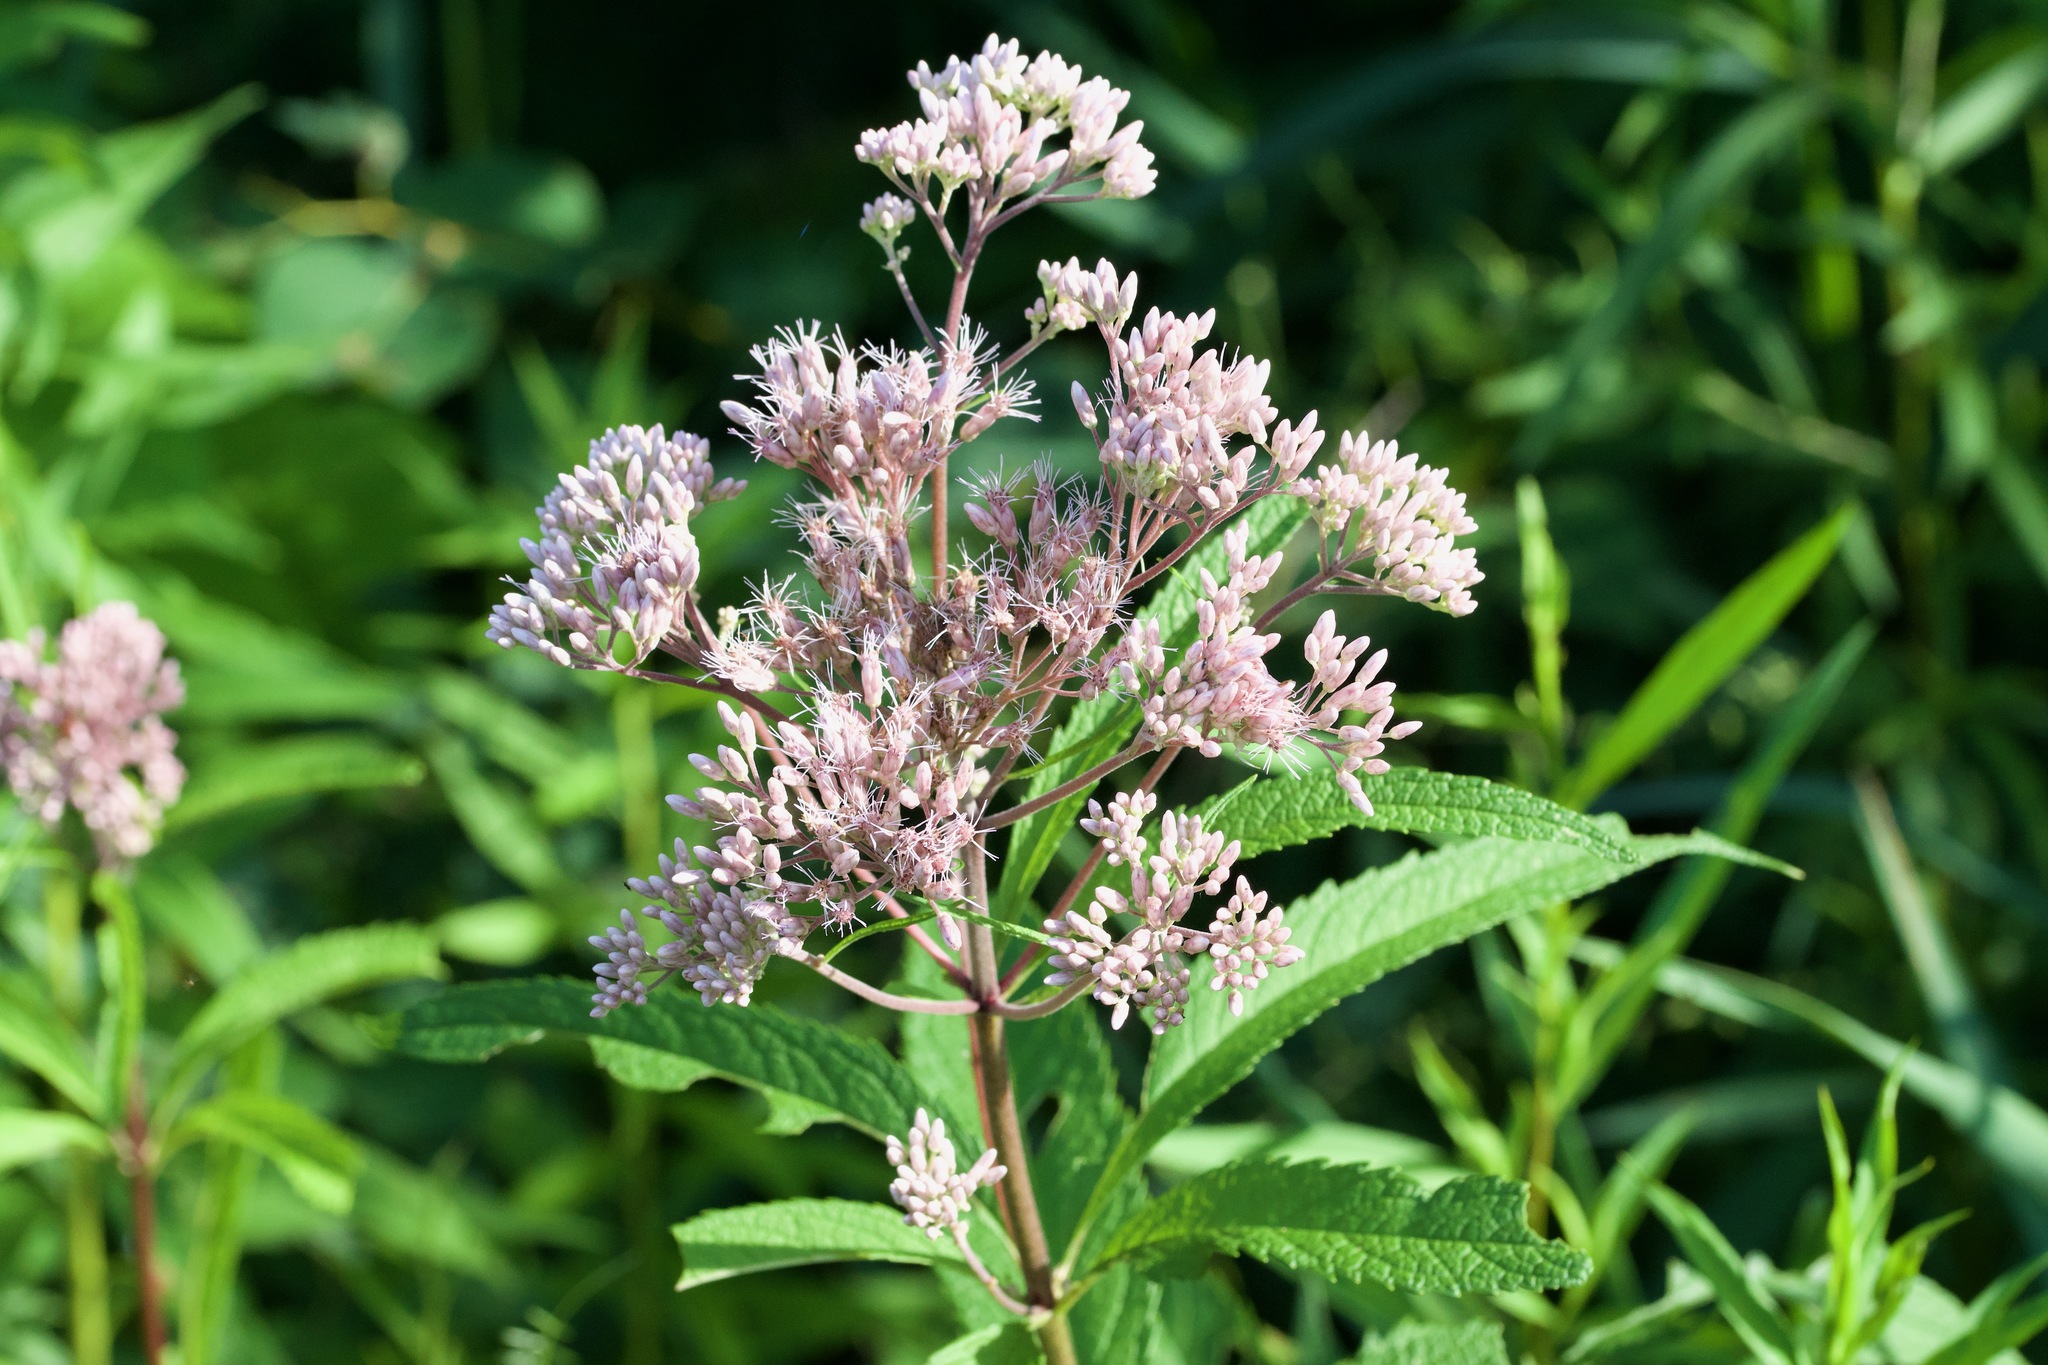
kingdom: Plantae
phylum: Tracheophyta
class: Magnoliopsida
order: Asterales
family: Asteraceae
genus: Eutrochium
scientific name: Eutrochium maculatum
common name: Spotted joe pye weed
